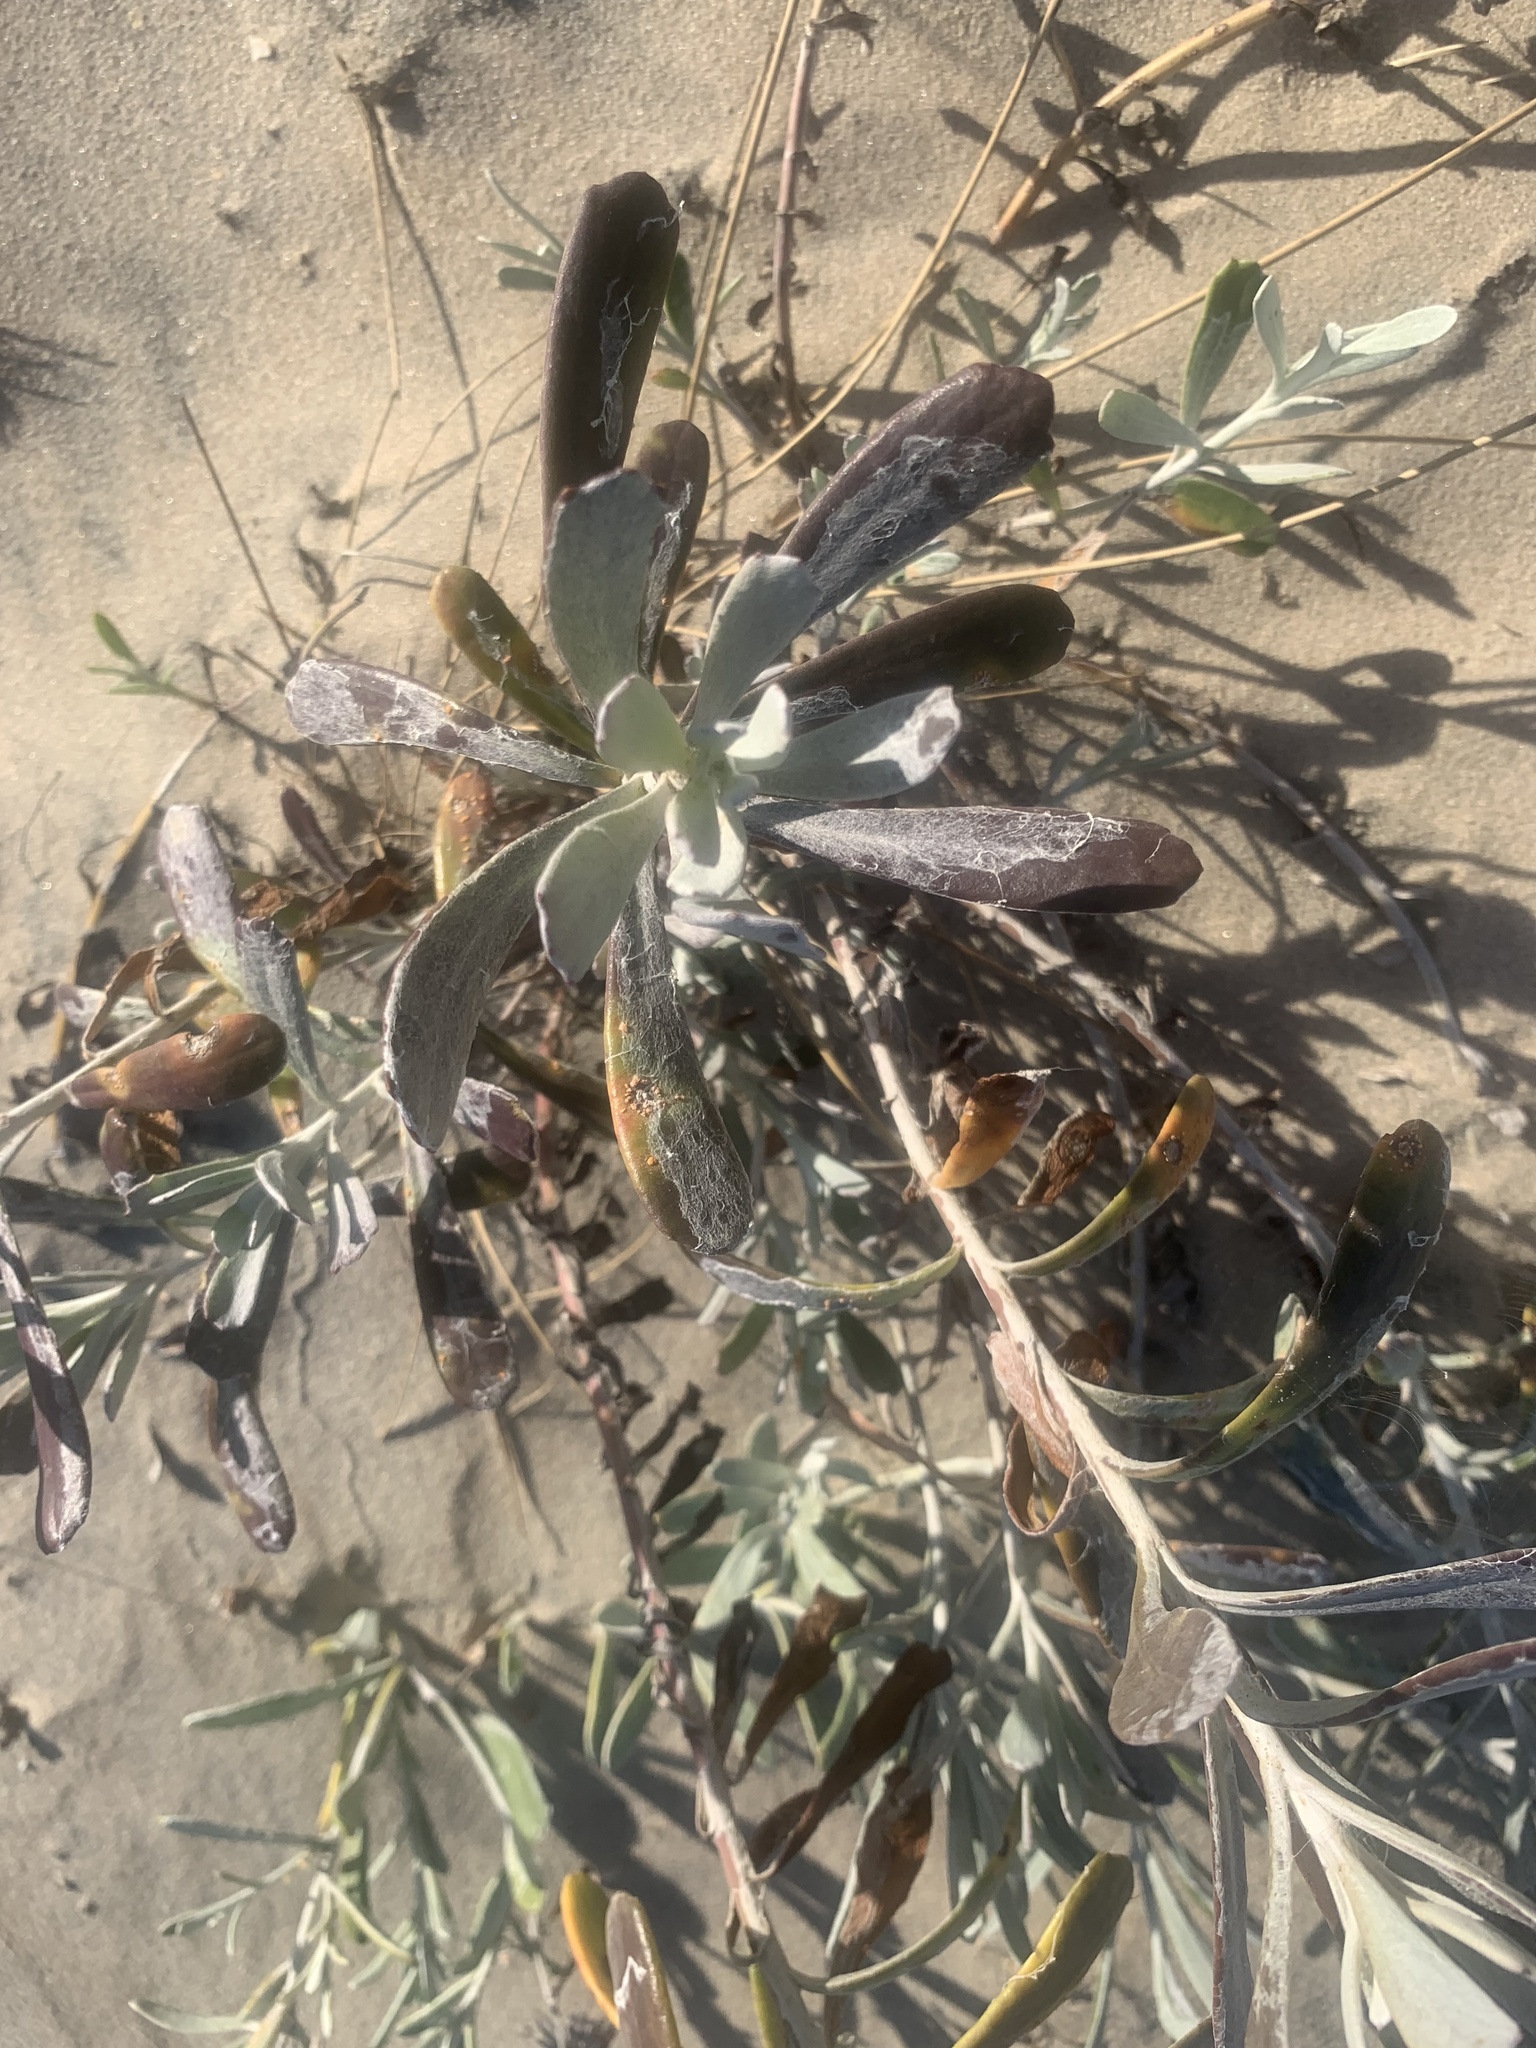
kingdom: Plantae
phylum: Tracheophyta
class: Magnoliopsida
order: Asterales
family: Asteraceae
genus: Senecio
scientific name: Senecio crassiflorus
